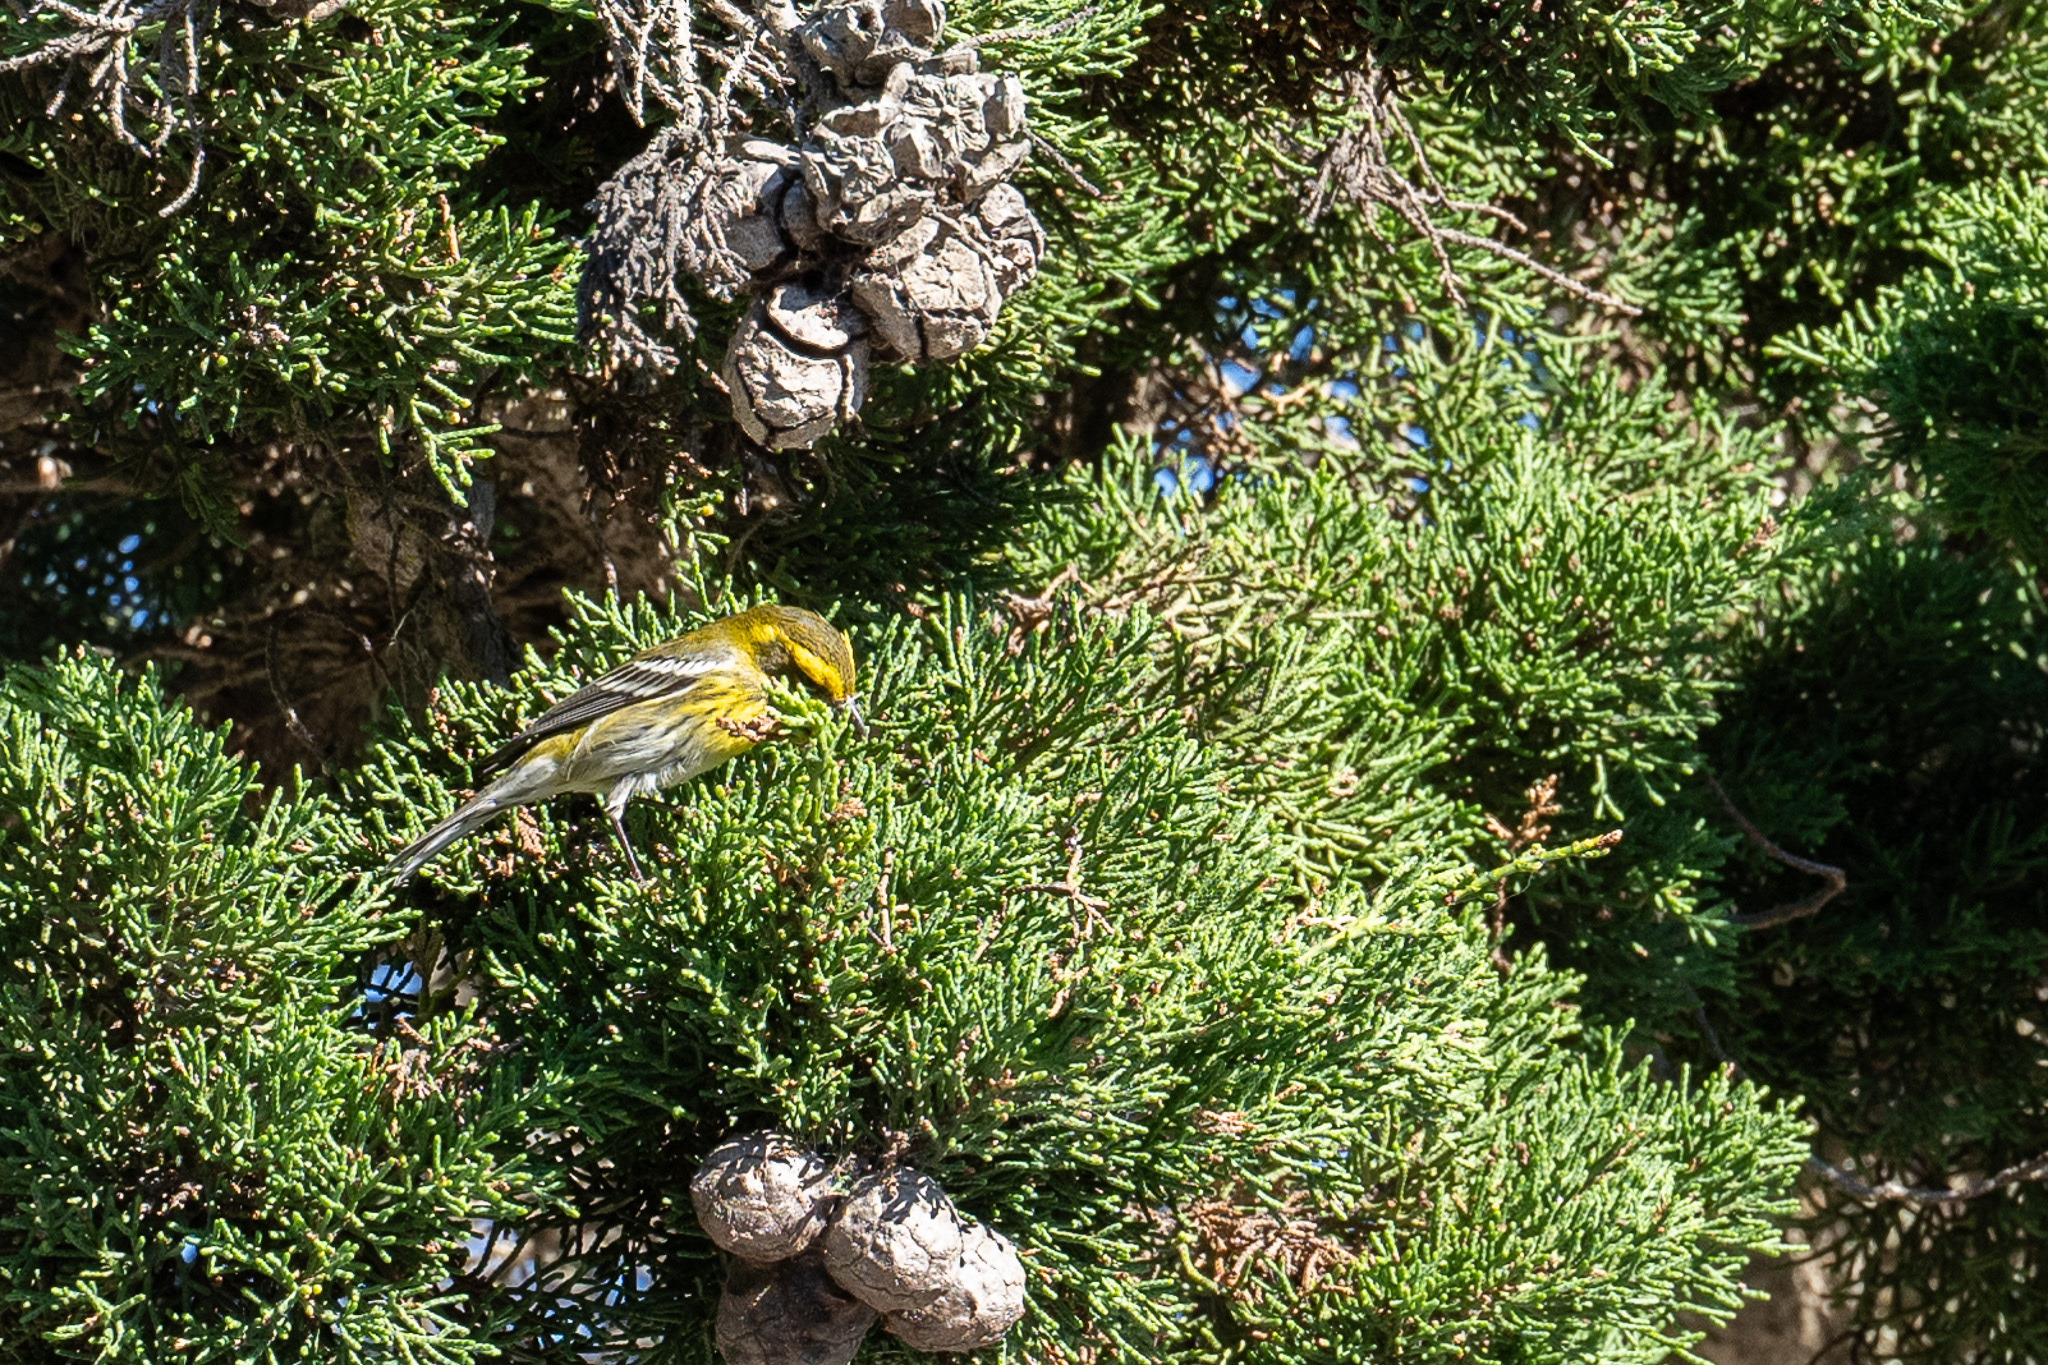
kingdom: Animalia
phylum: Chordata
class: Aves
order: Passeriformes
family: Parulidae
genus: Setophaga
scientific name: Setophaga townsendi
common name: Townsend's warbler
